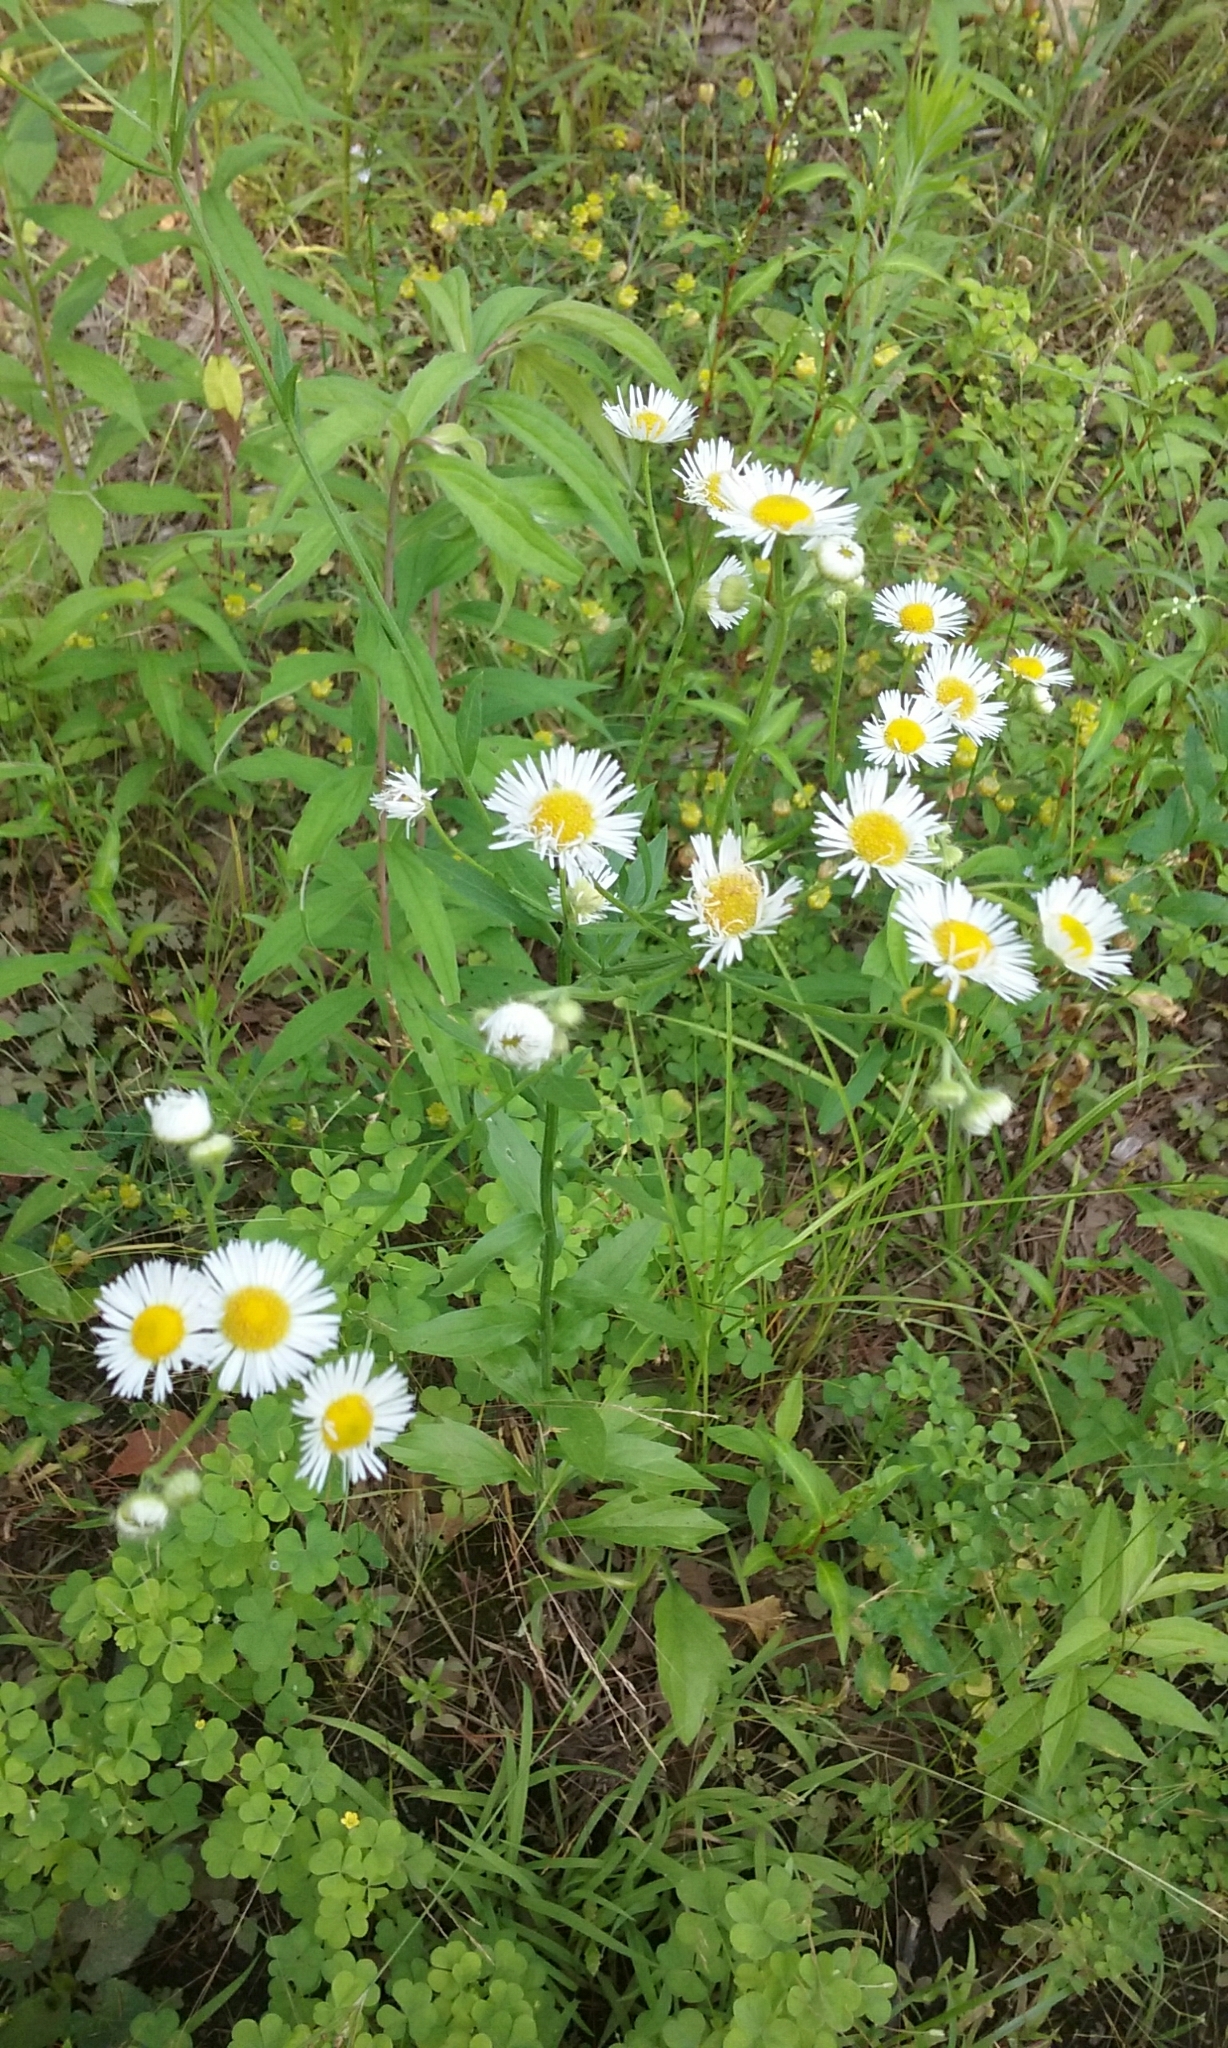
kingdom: Plantae
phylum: Tracheophyta
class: Magnoliopsida
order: Asterales
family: Asteraceae
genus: Erigeron
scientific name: Erigeron annuus
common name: Tall fleabane
